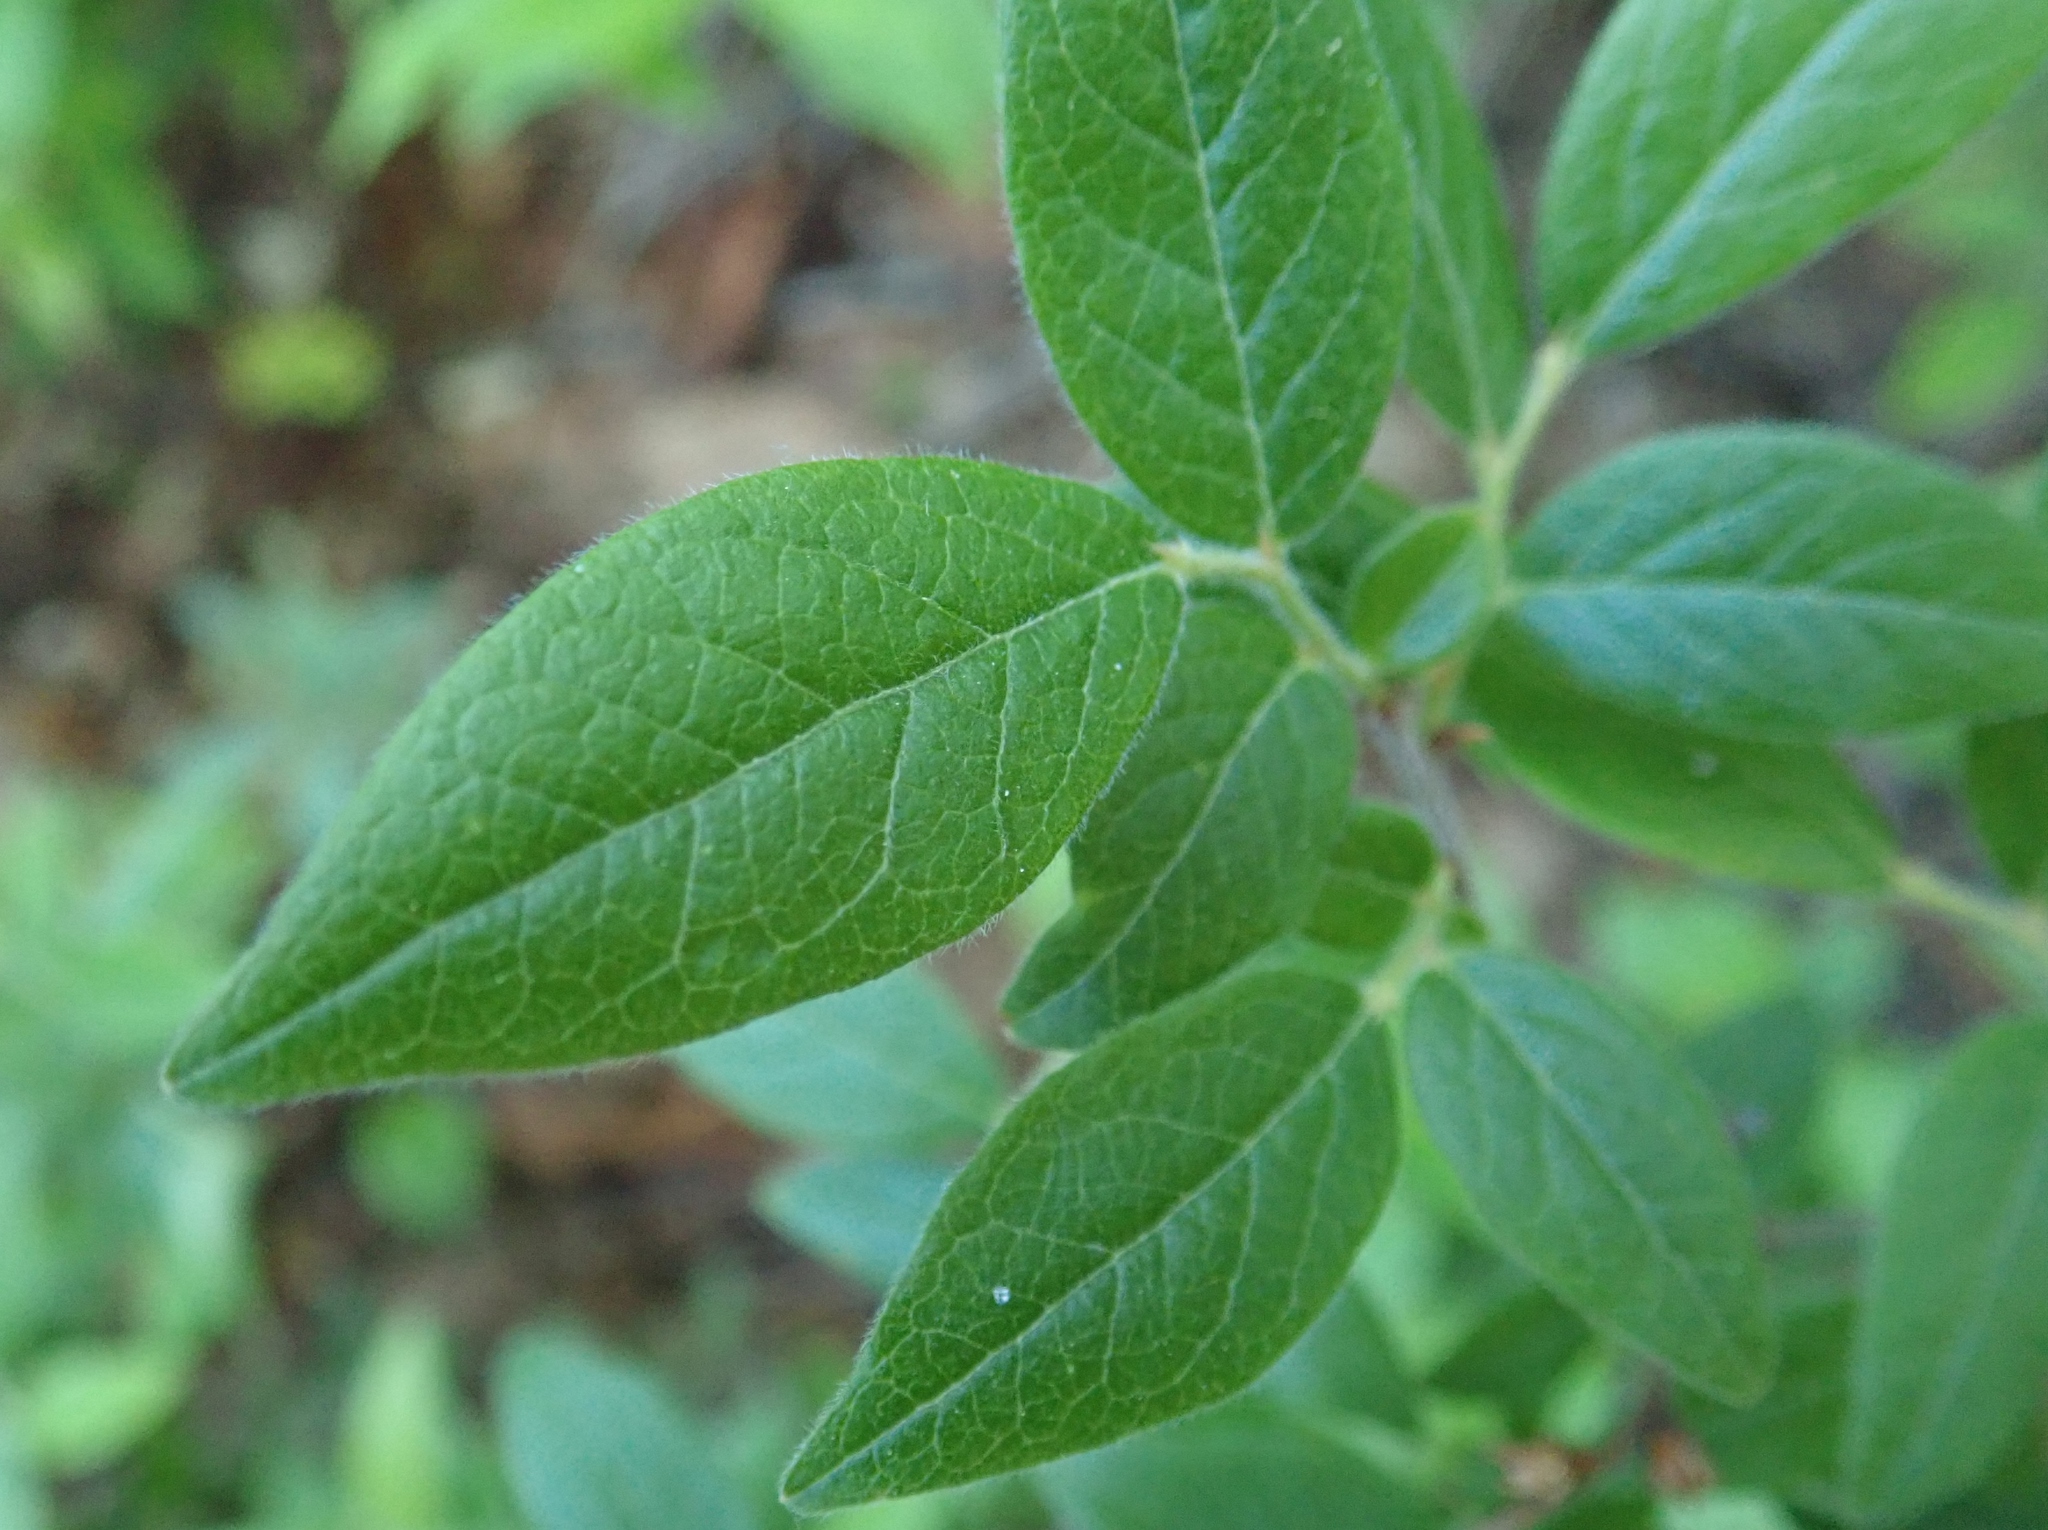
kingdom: Plantae
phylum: Tracheophyta
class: Magnoliopsida
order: Ericales
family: Ericaceae
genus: Vaccinium
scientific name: Vaccinium myrtilloides
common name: Canada blueberry
